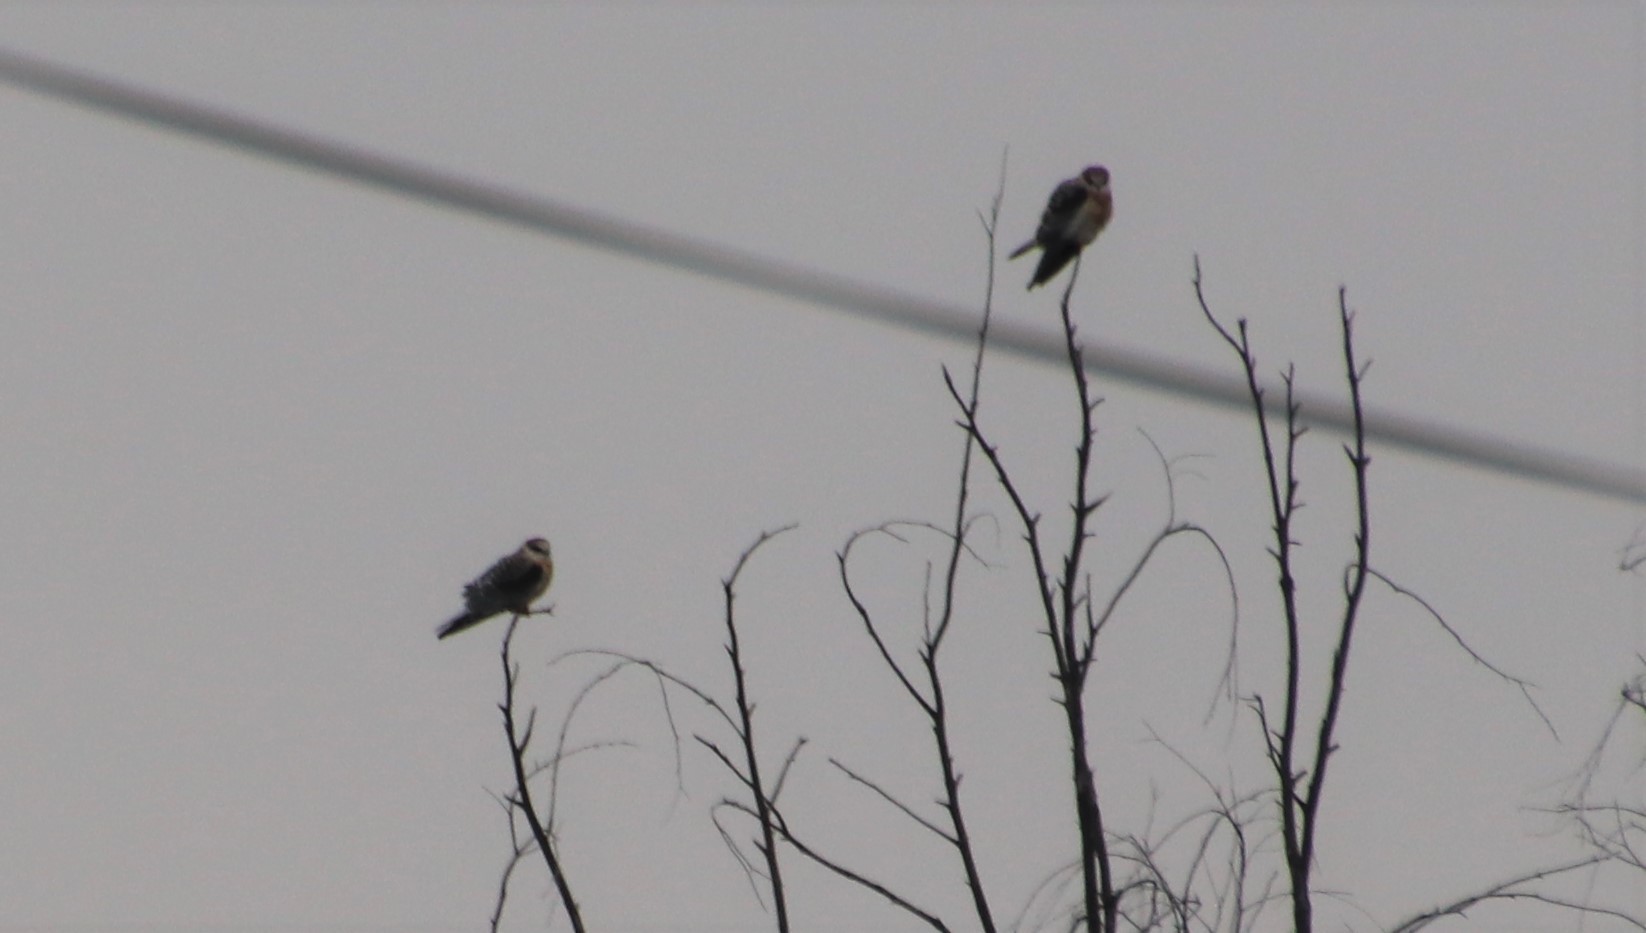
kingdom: Animalia
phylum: Chordata
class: Aves
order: Accipitriformes
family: Accipitridae
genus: Elanus
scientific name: Elanus leucurus
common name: White-tailed kite
